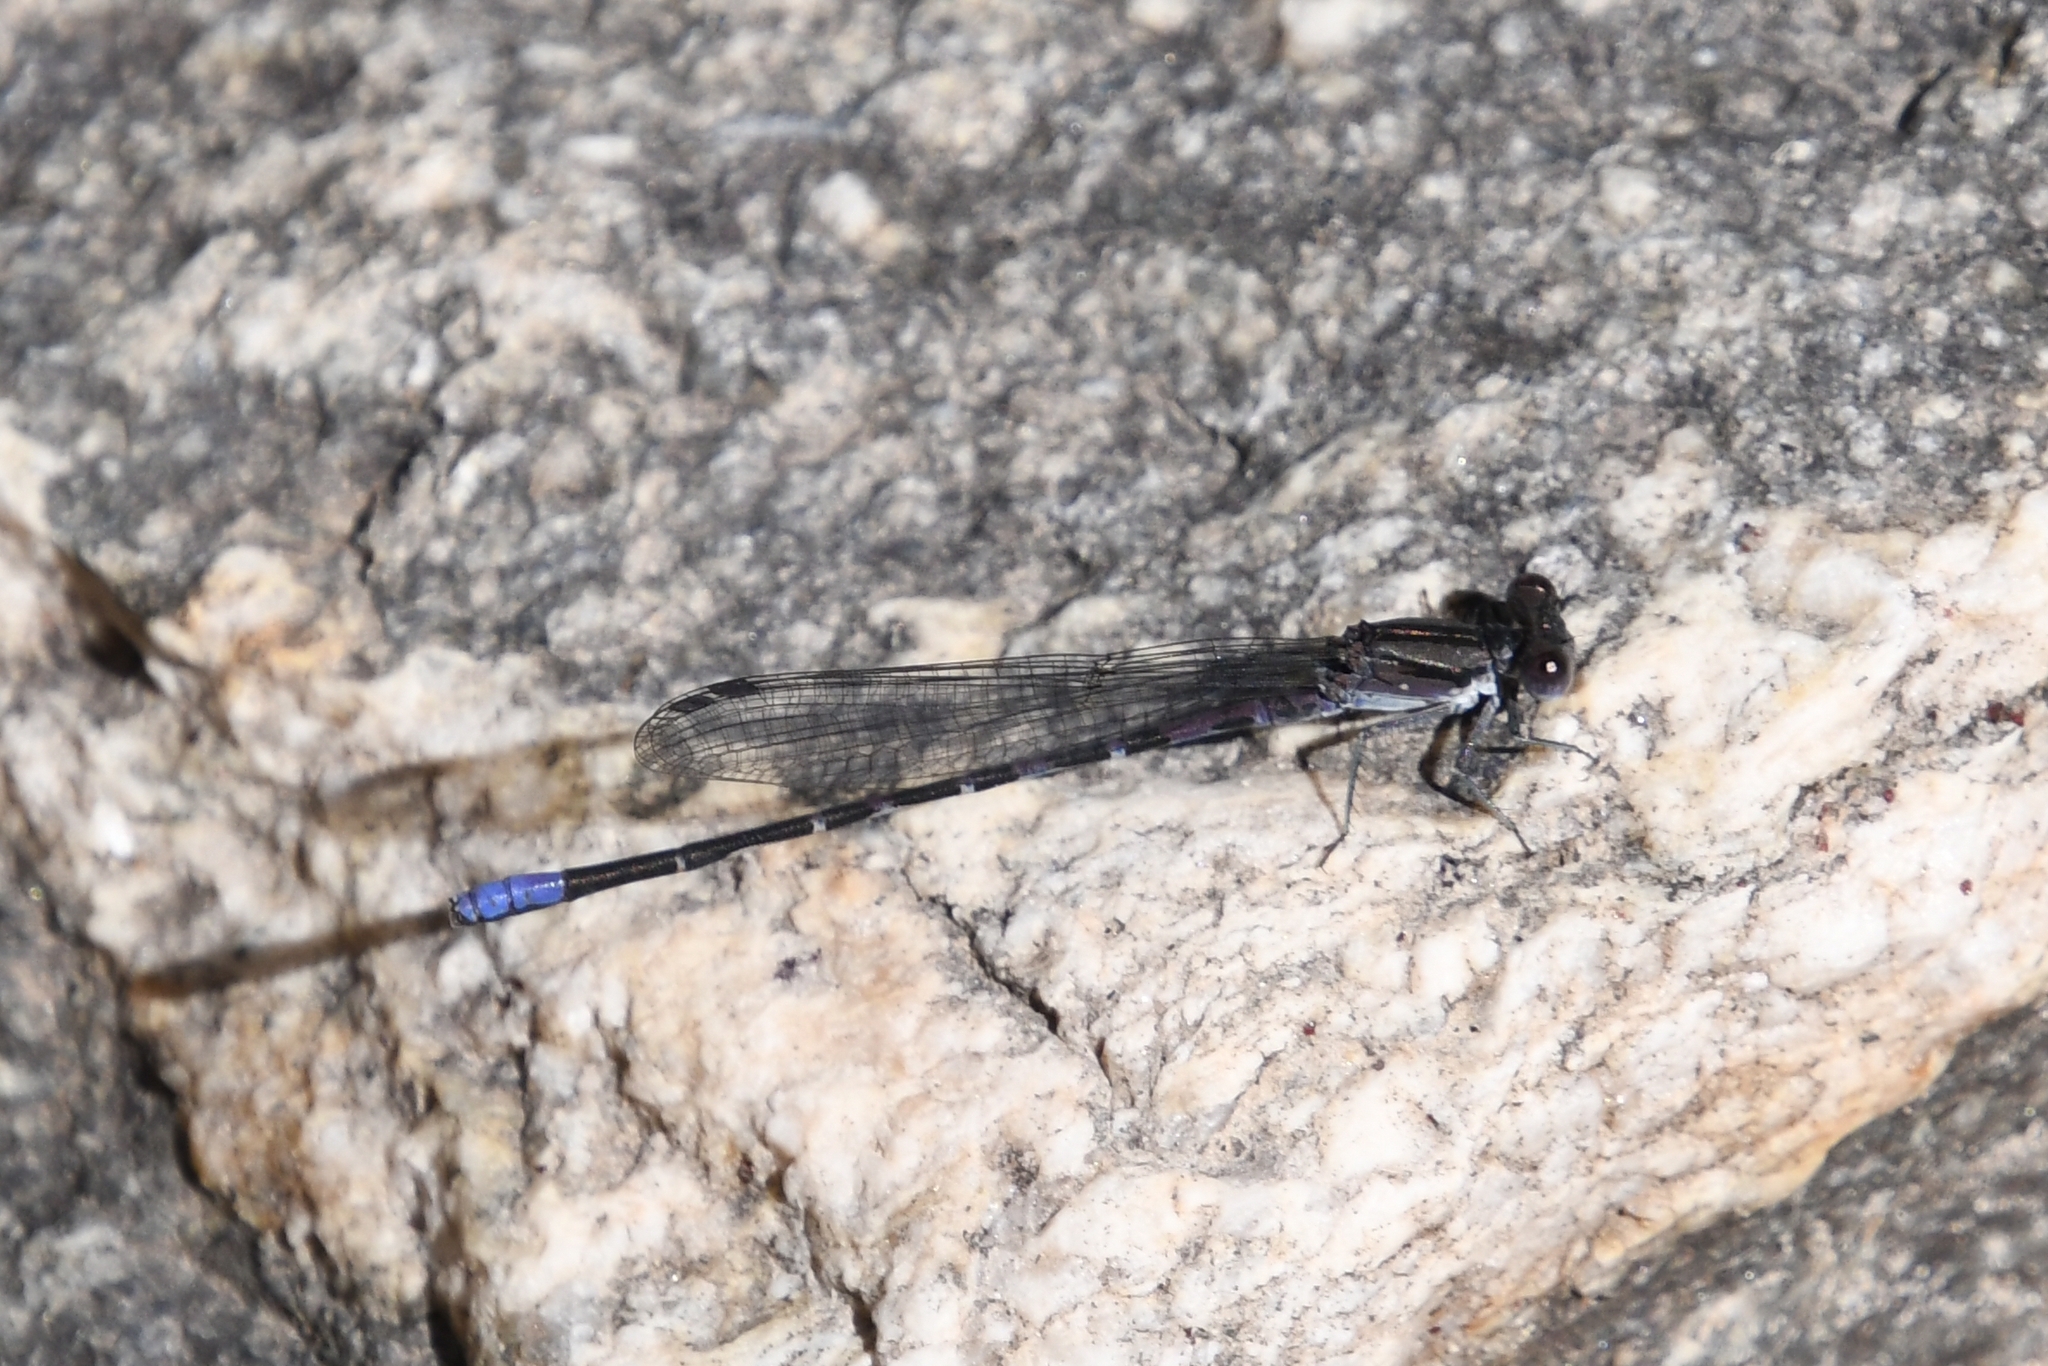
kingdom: Animalia
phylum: Arthropoda
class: Insecta
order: Odonata
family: Coenagrionidae
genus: Argia
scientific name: Argia immunda
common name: Kiowa dancer
